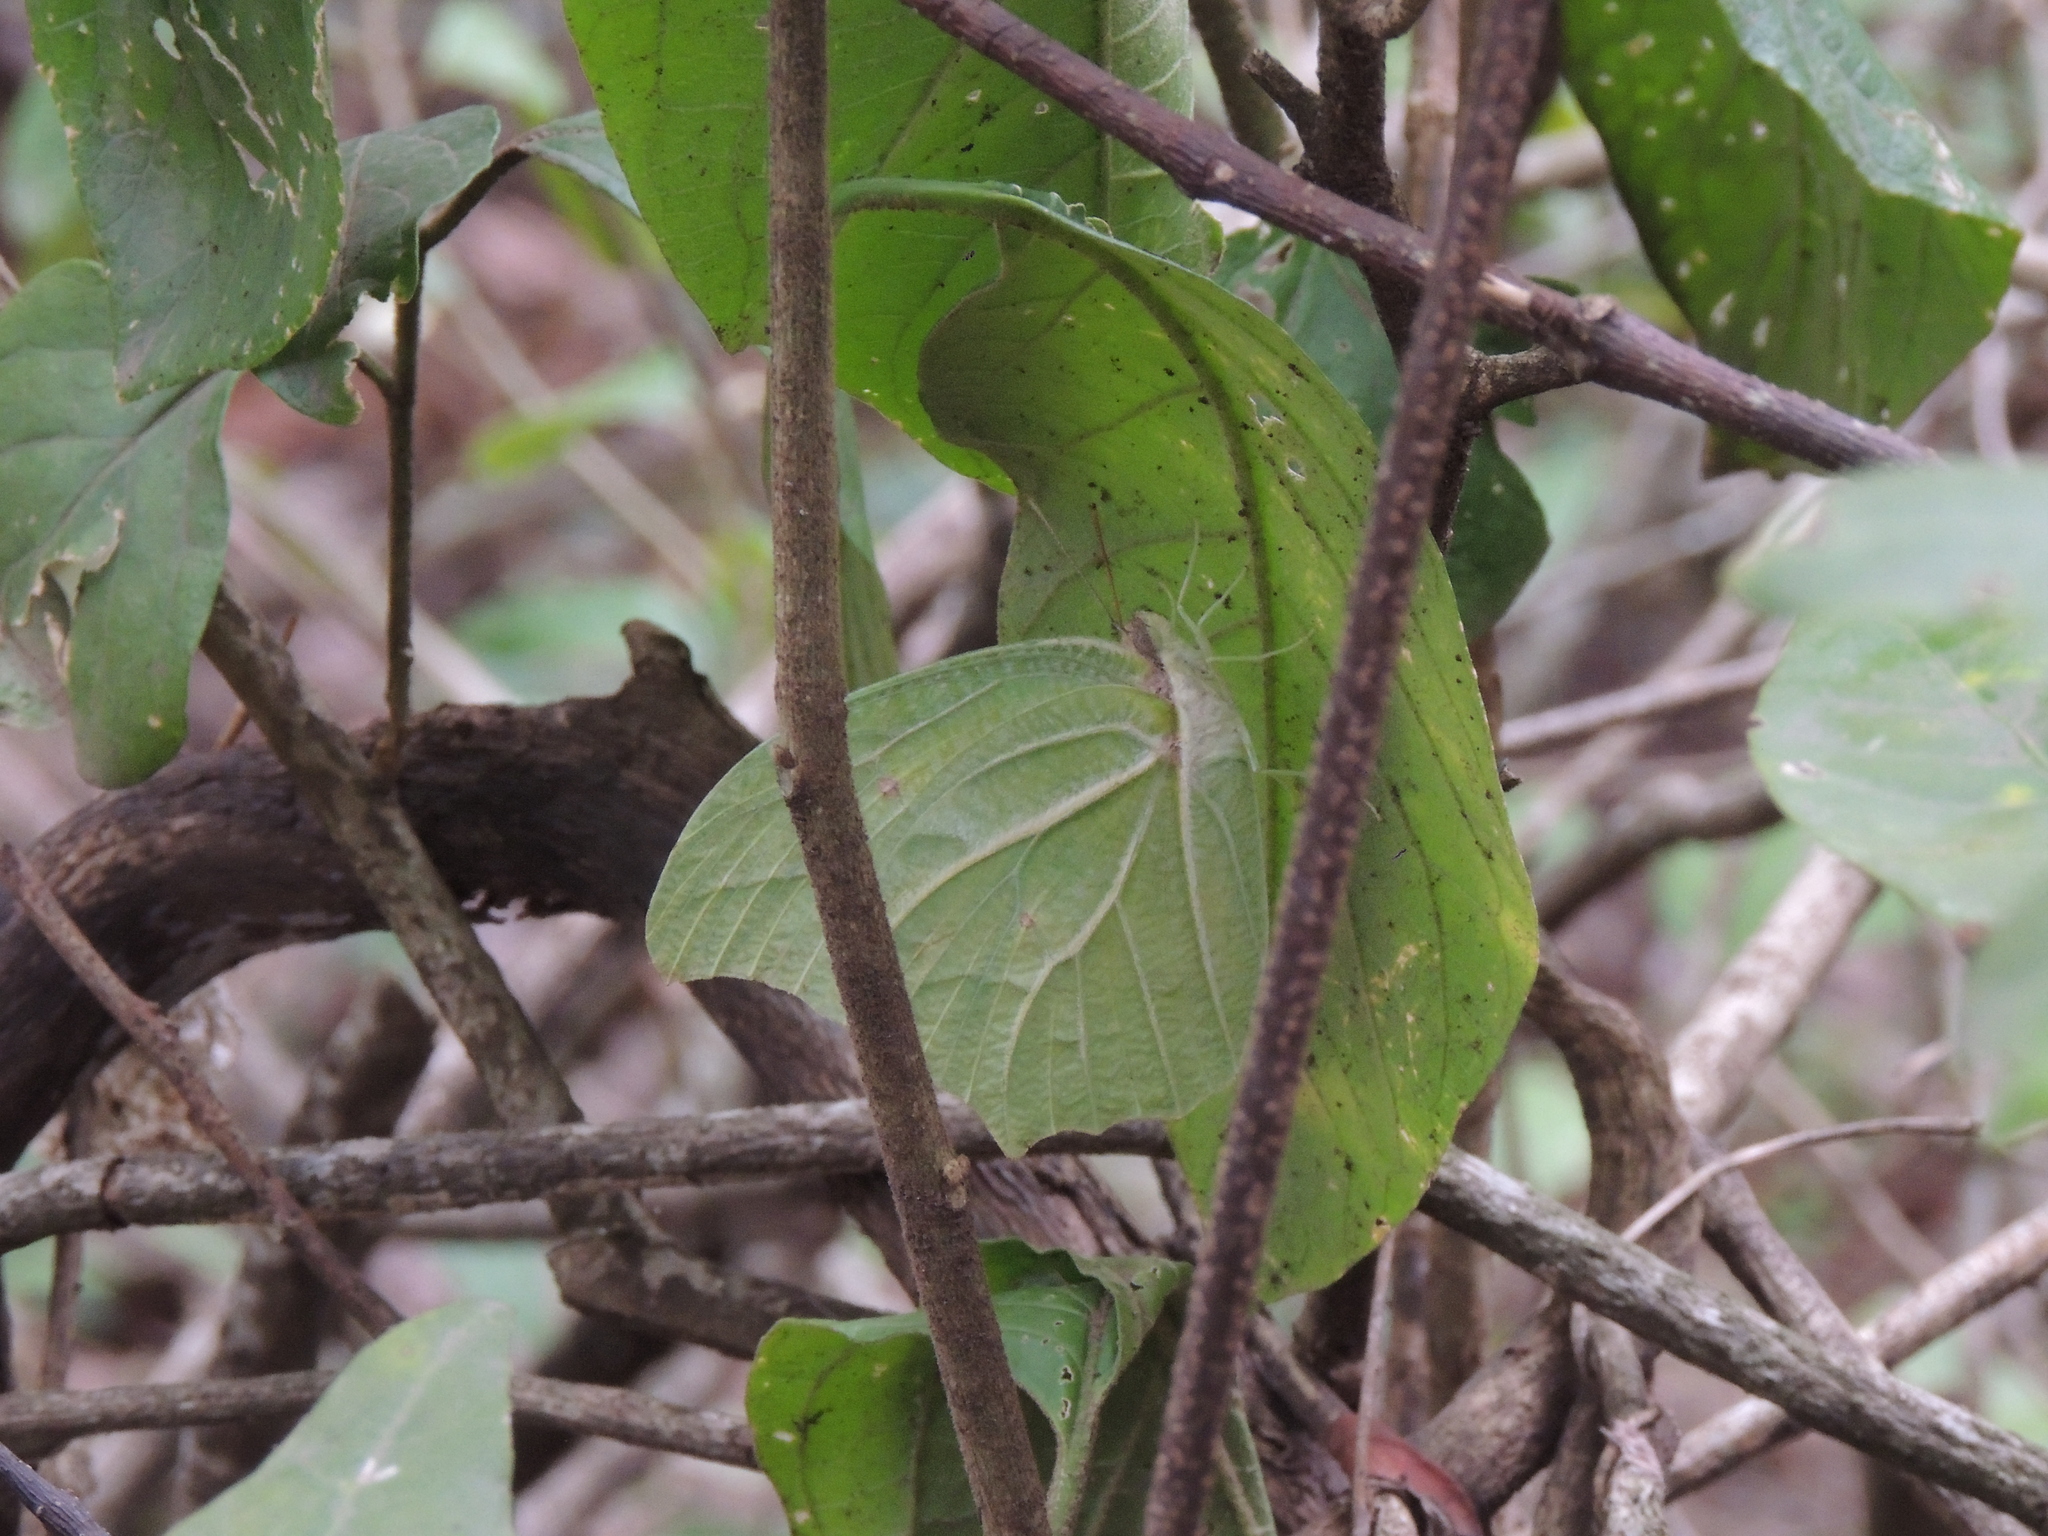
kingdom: Animalia
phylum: Arthropoda
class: Insecta
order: Lepidoptera
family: Pieridae
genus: Anteos
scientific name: Anteos clorinde
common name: White angled sulphur
